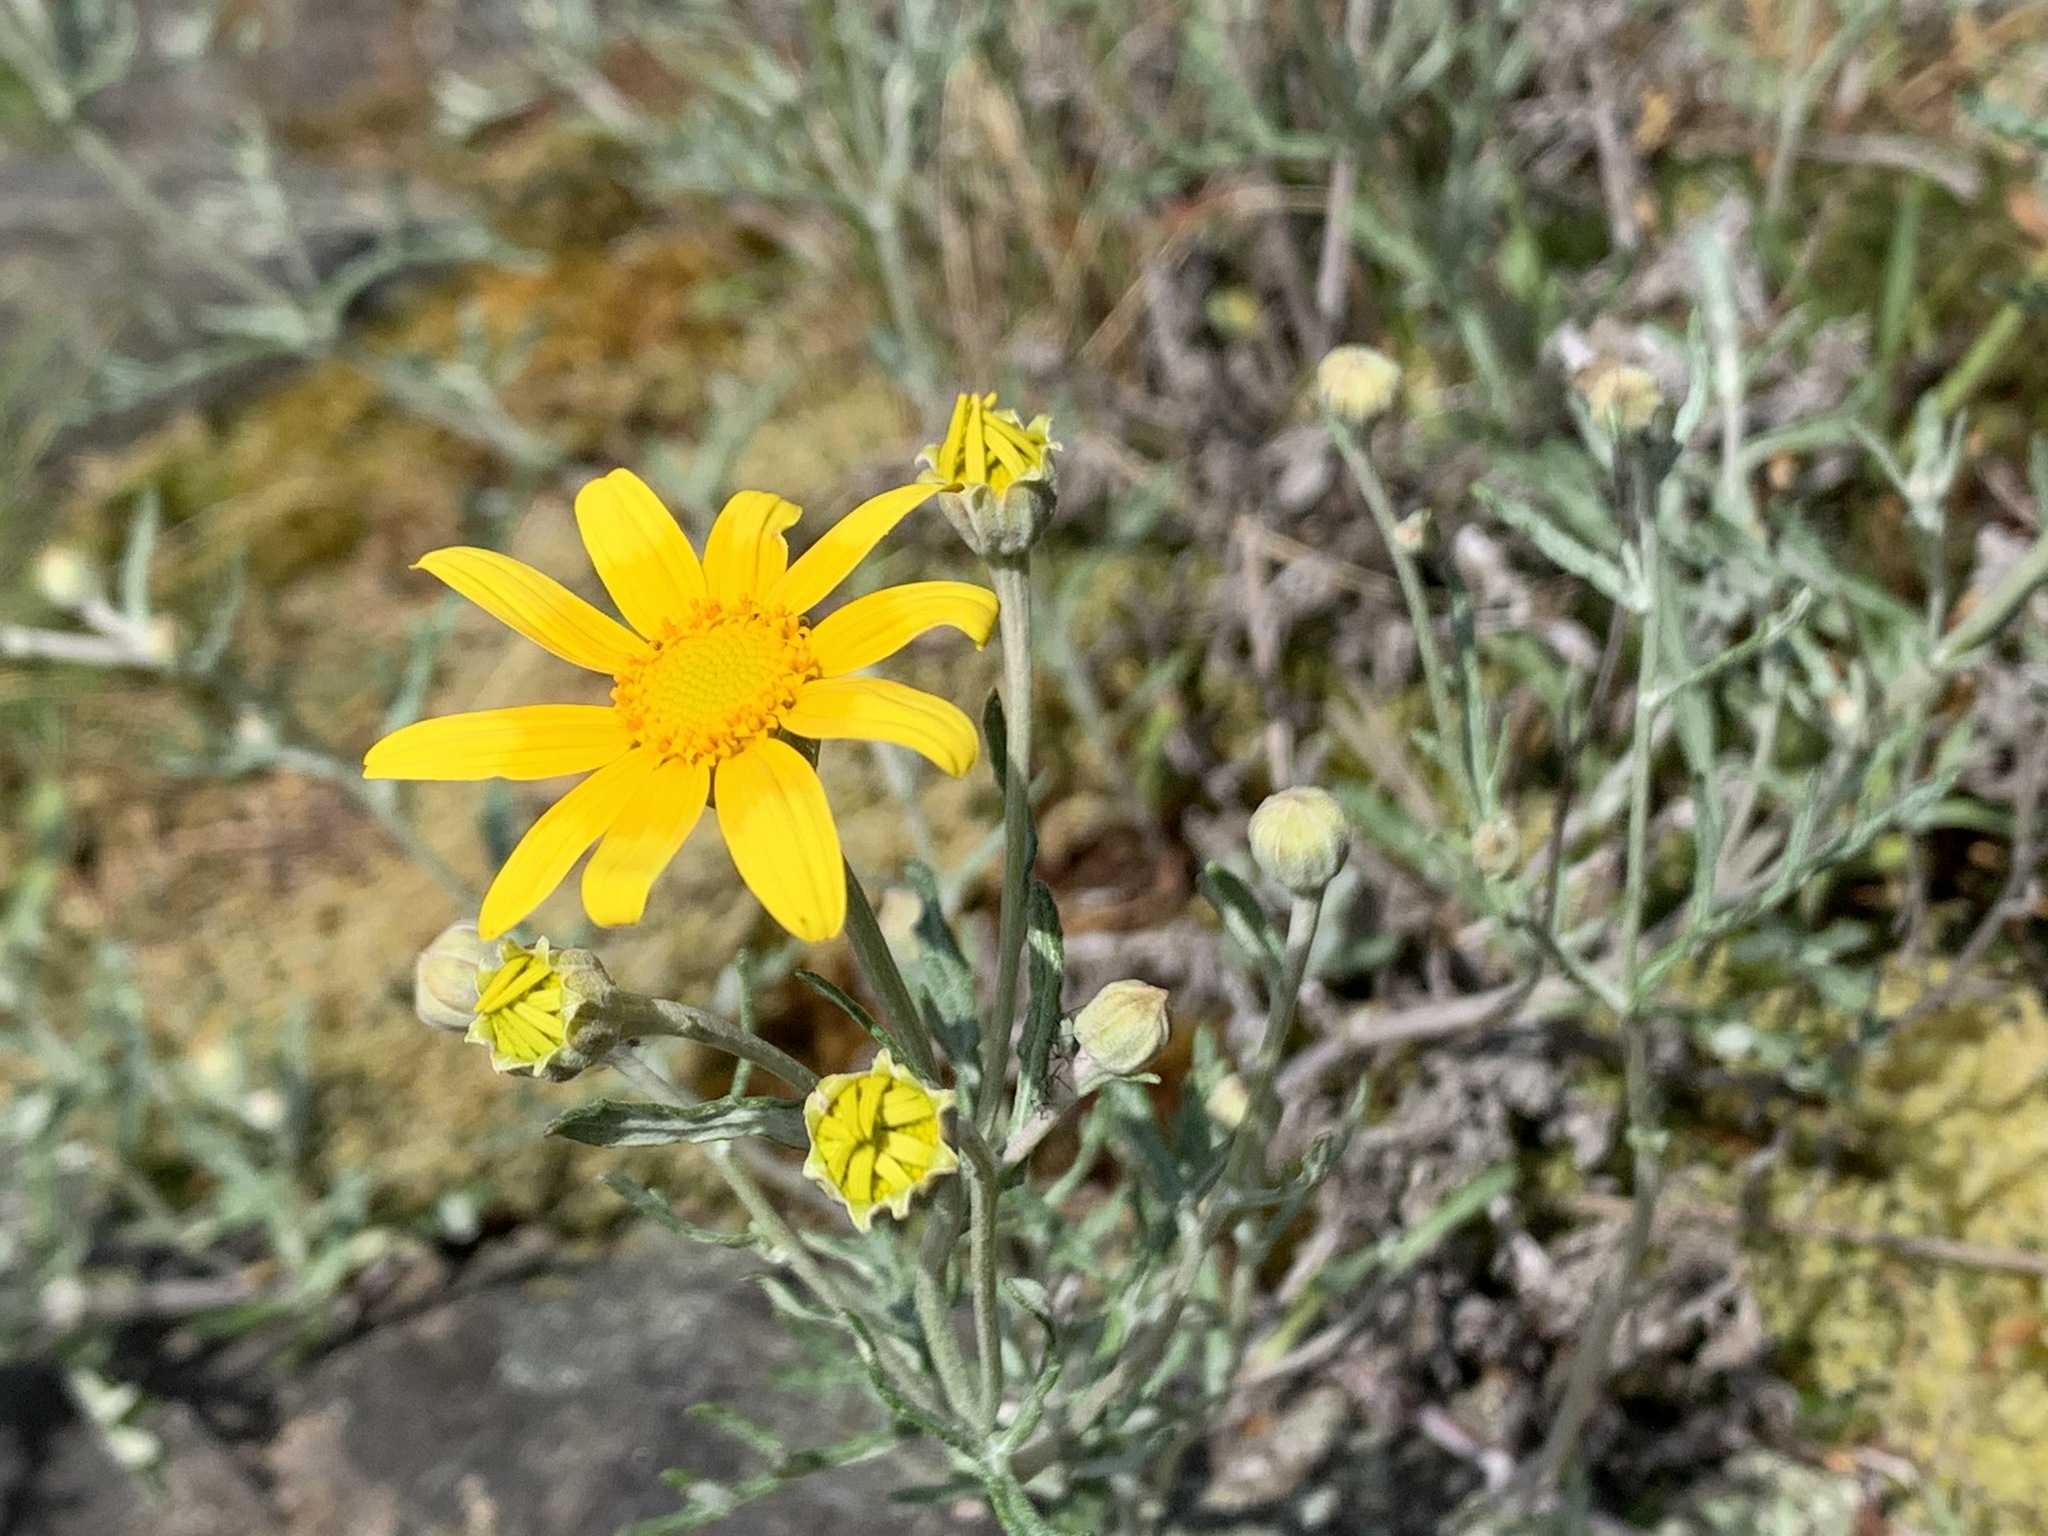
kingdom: Plantae
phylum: Tracheophyta
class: Magnoliopsida
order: Asterales
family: Asteraceae
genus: Eriophyllum
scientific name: Eriophyllum lanatum
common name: Common woolly-sunflower
